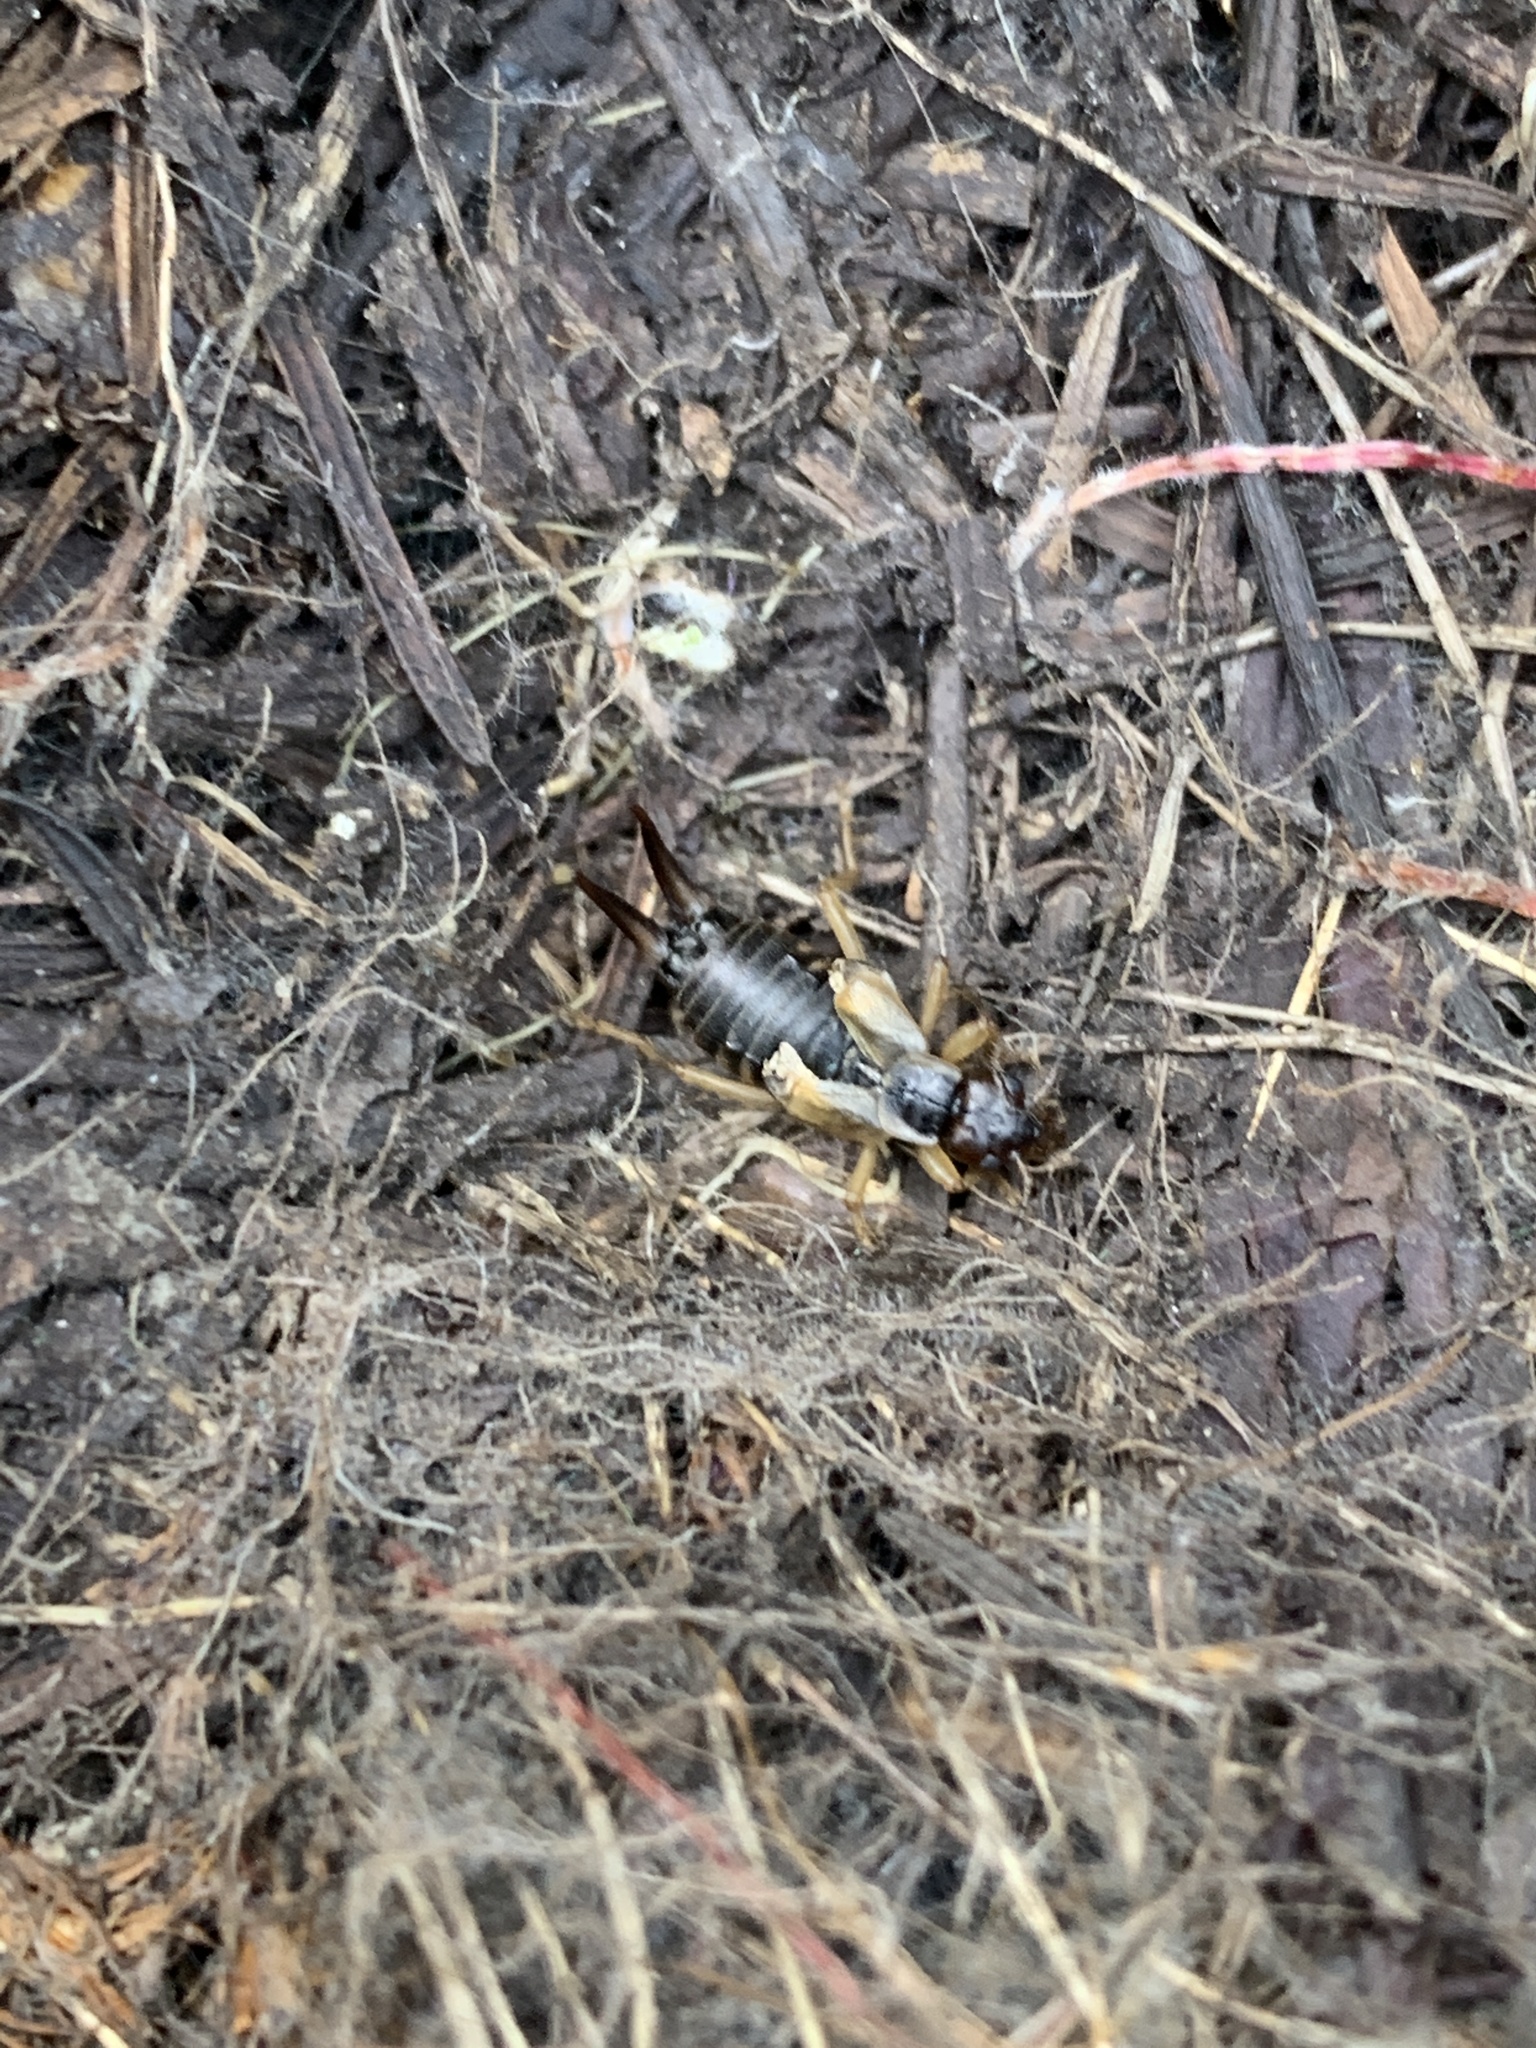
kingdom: Animalia
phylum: Arthropoda
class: Insecta
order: Dermaptera
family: Forficulidae
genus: Forficula
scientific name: Forficula
